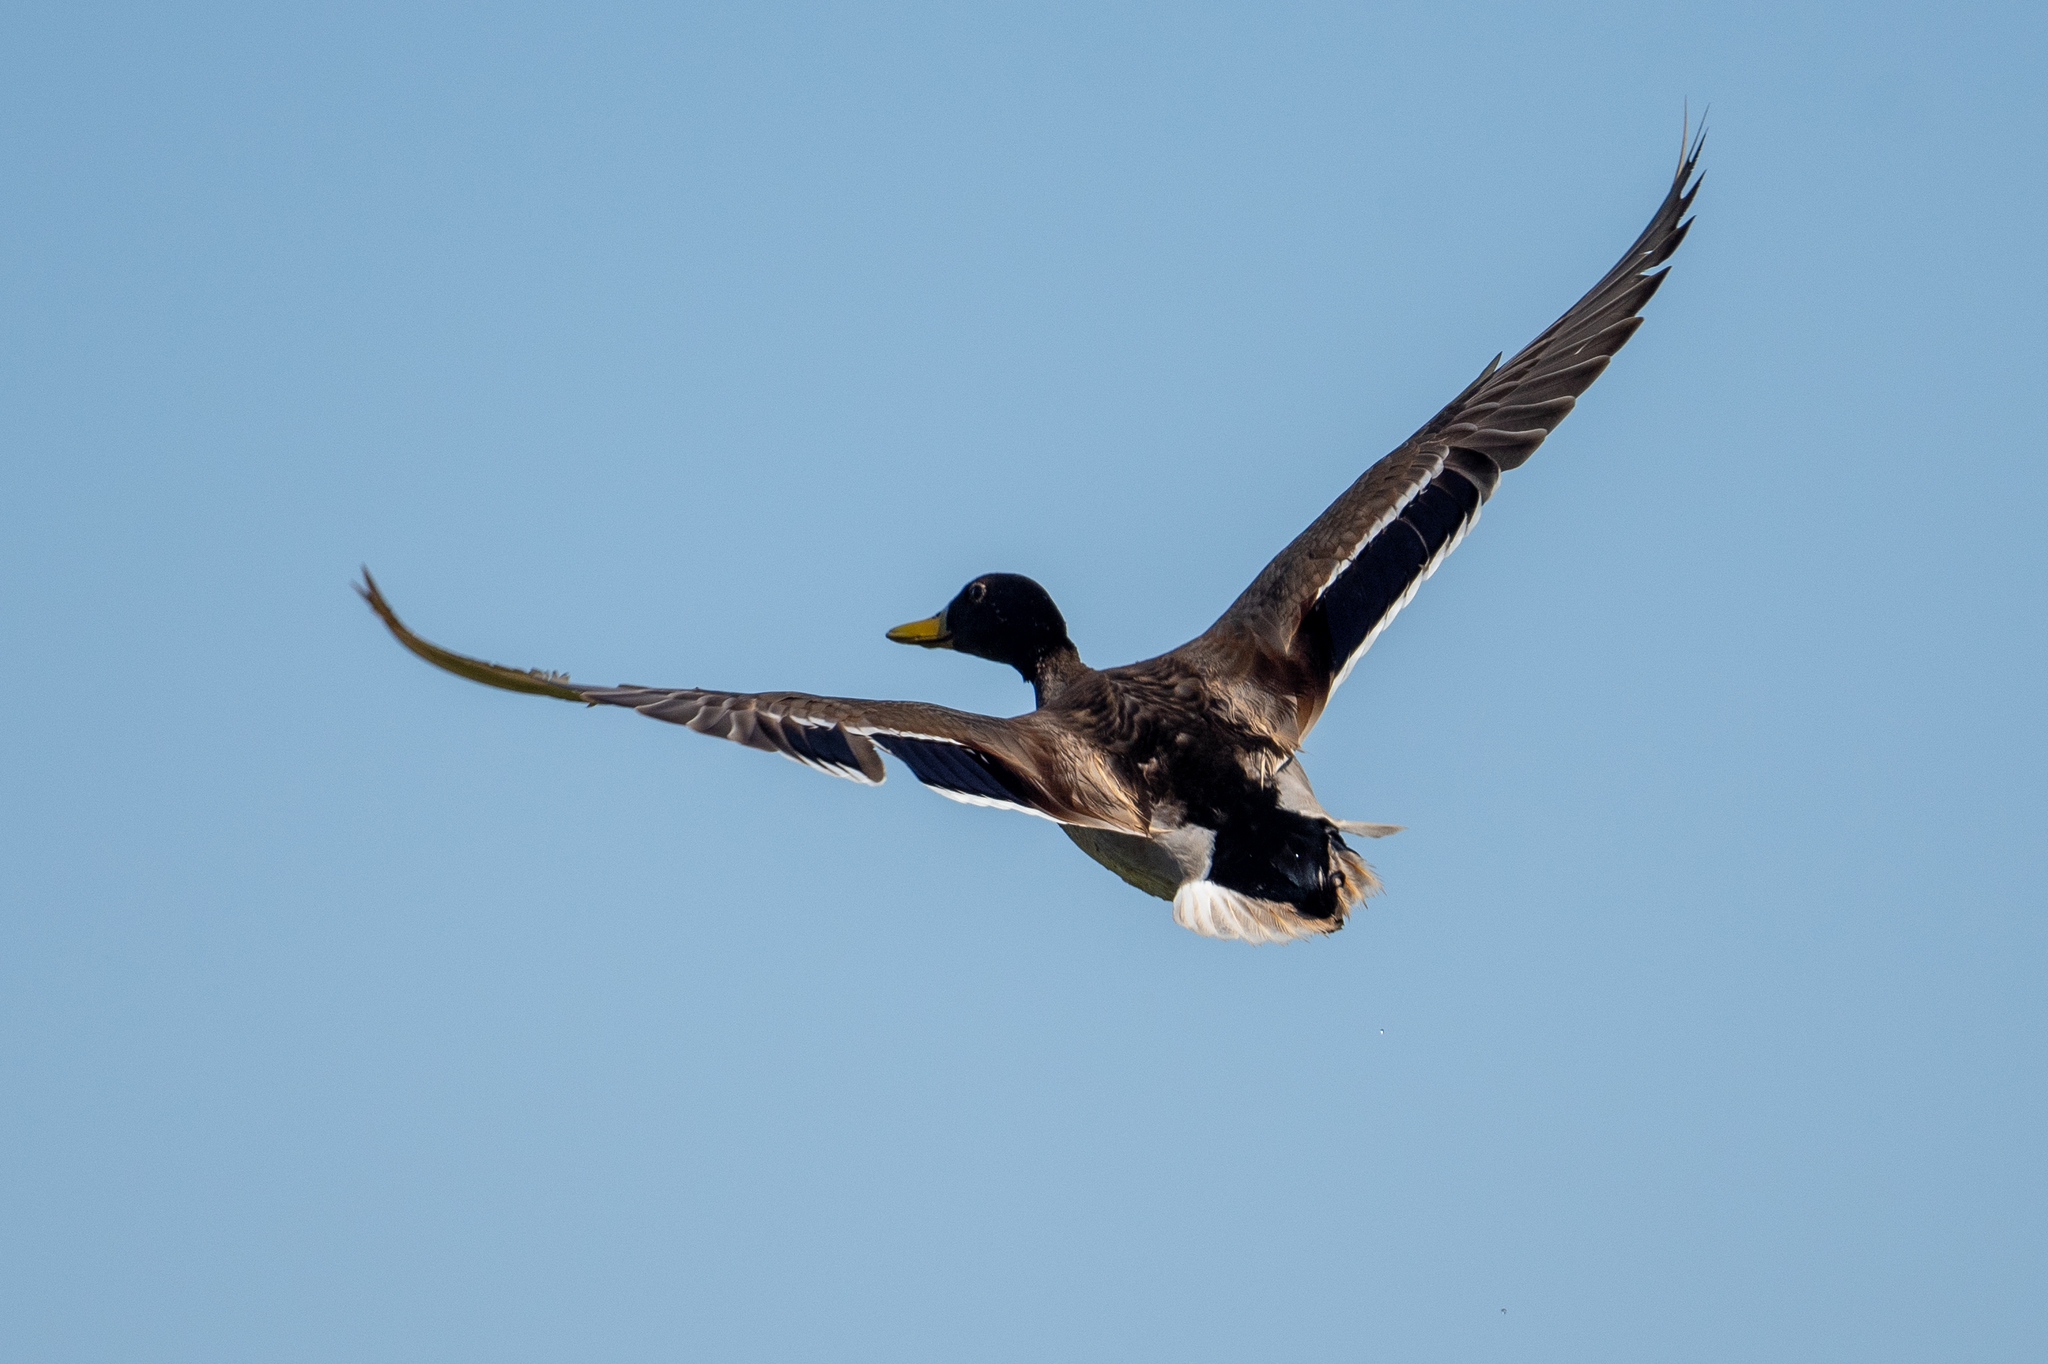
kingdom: Animalia
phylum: Chordata
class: Aves
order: Anseriformes
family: Anatidae
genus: Anas
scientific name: Anas platyrhynchos
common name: Mallard
